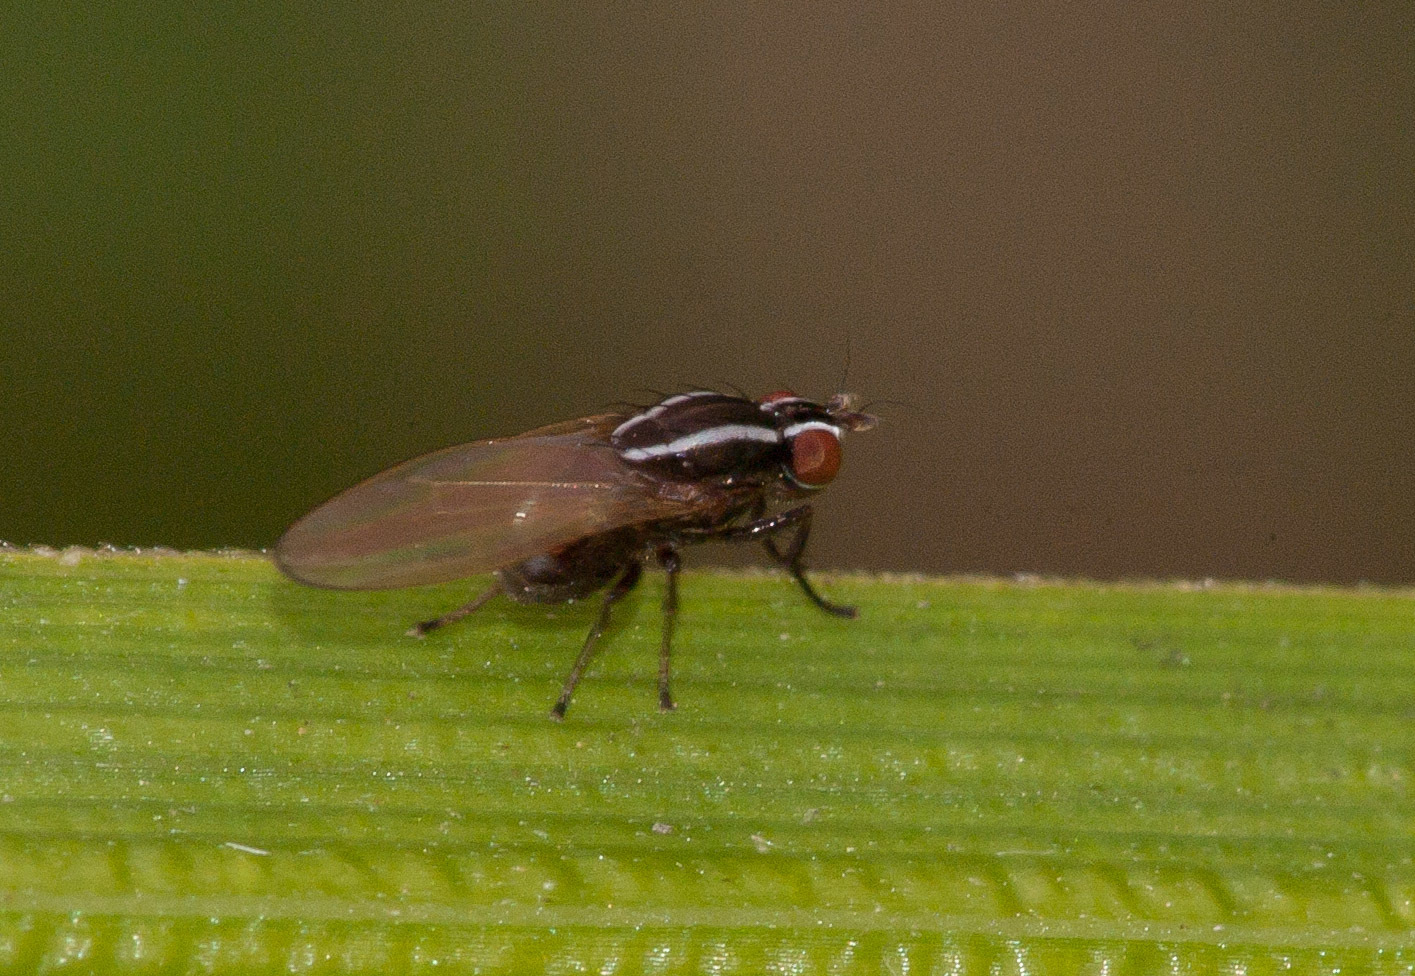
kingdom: Animalia
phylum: Arthropoda
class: Insecta
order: Diptera
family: Lauxaniidae
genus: Poecilohetaerus
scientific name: Poecilohetaerus aquilus
